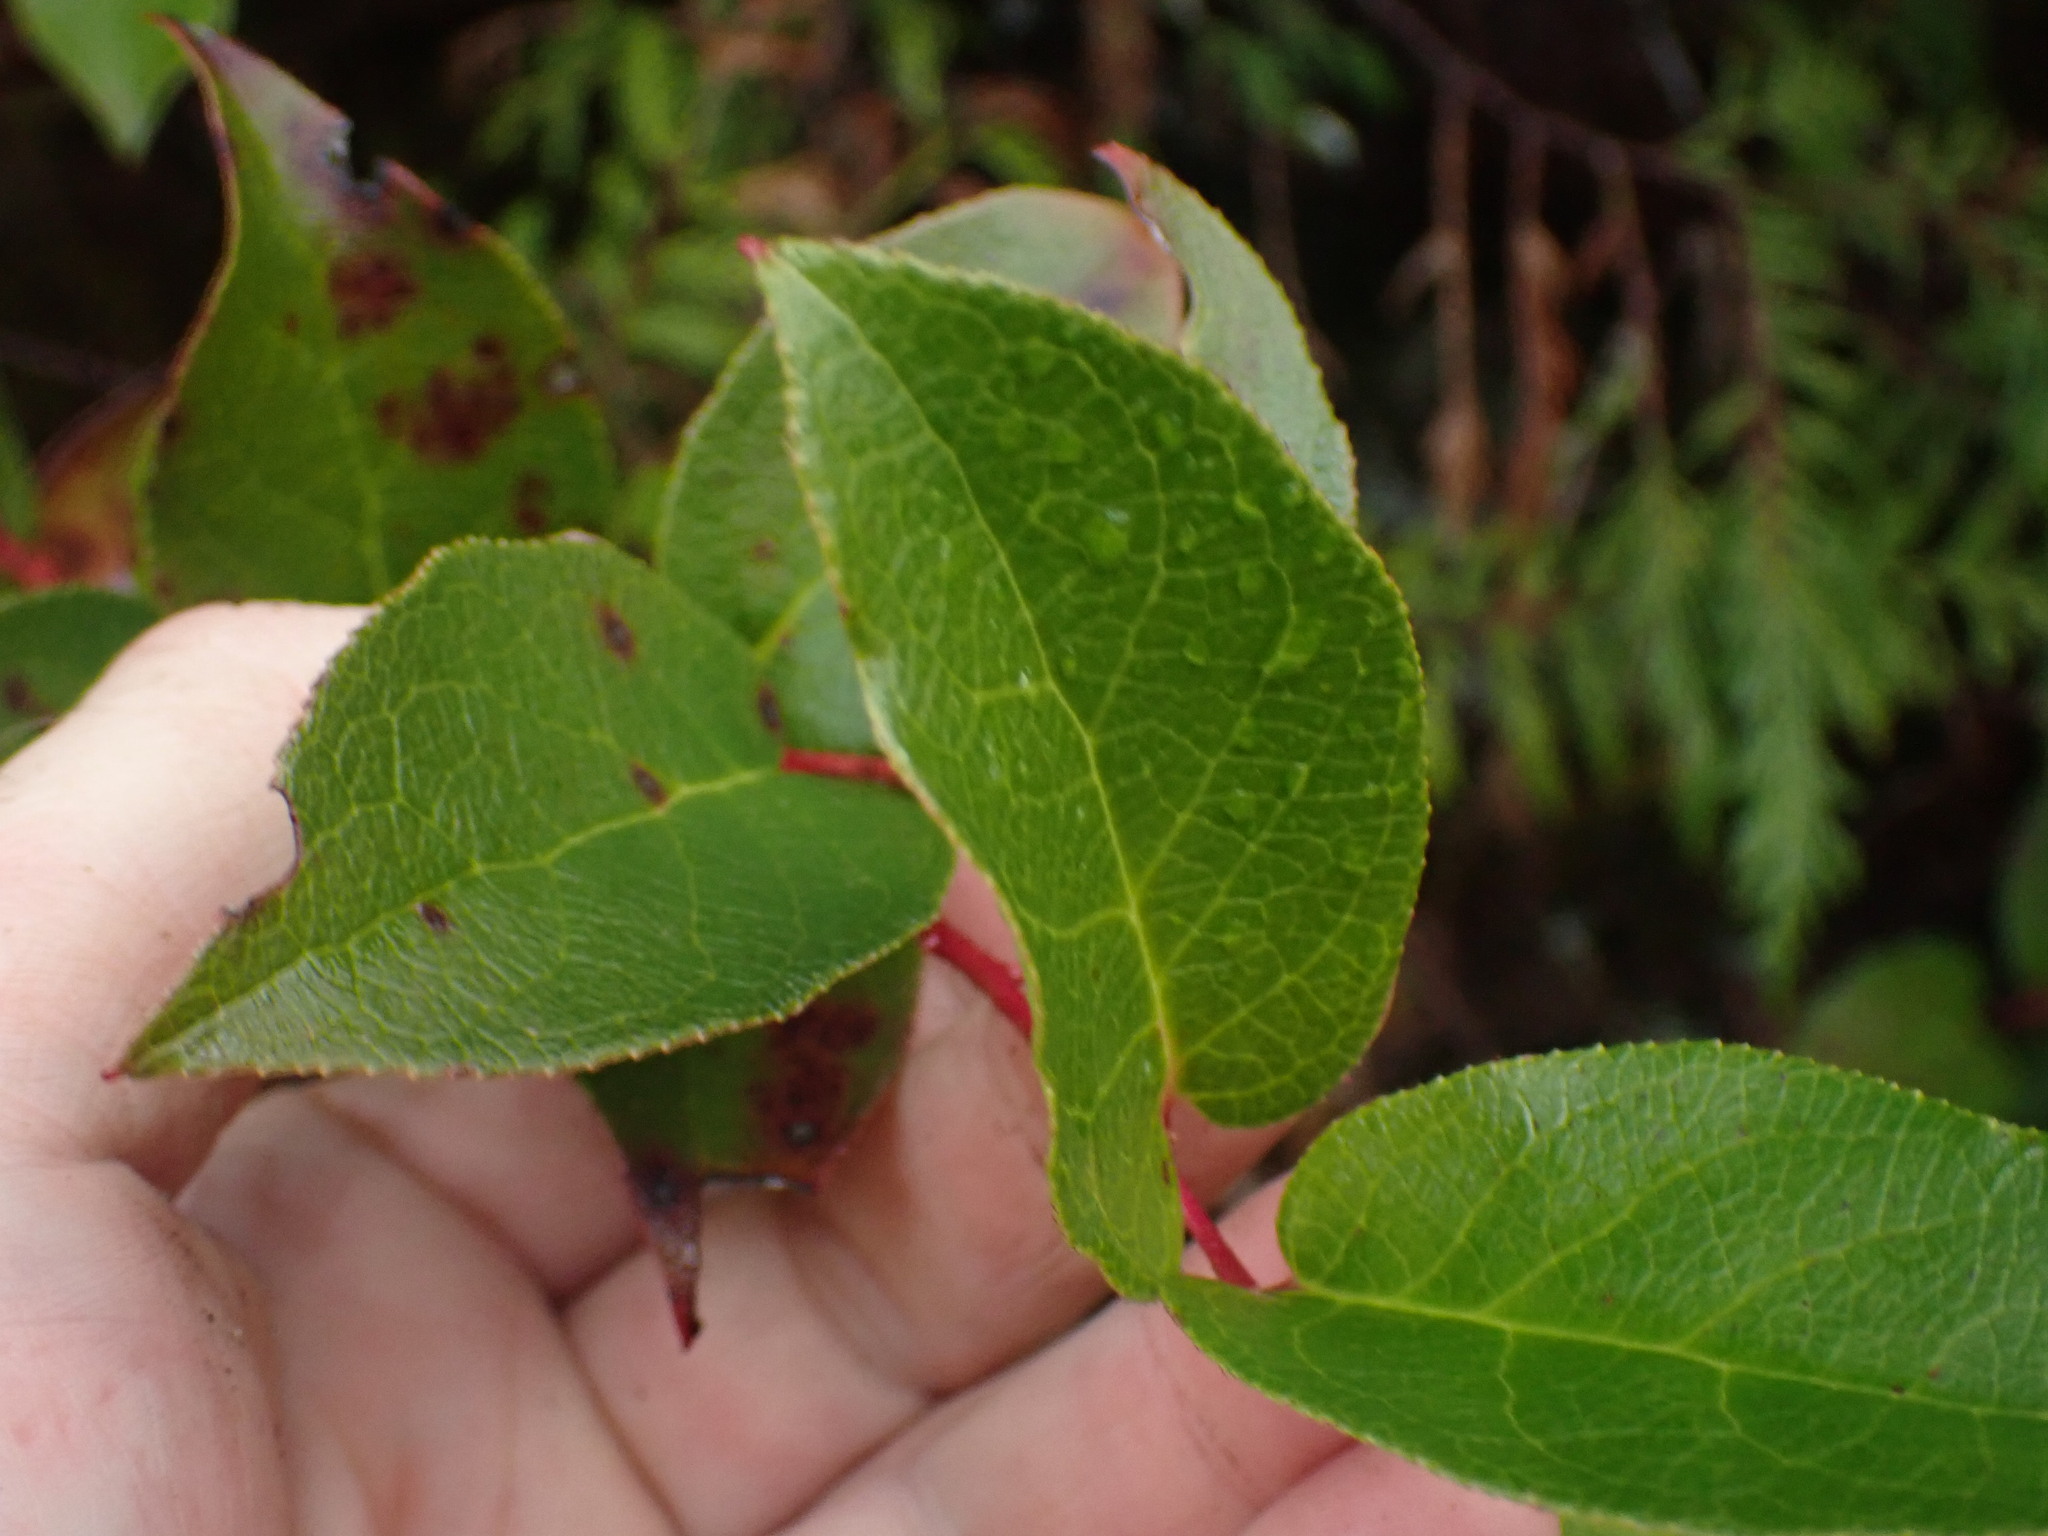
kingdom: Plantae
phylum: Tracheophyta
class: Magnoliopsida
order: Ericales
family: Ericaceae
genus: Gaultheria
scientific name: Gaultheria shallon
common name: Shallon
